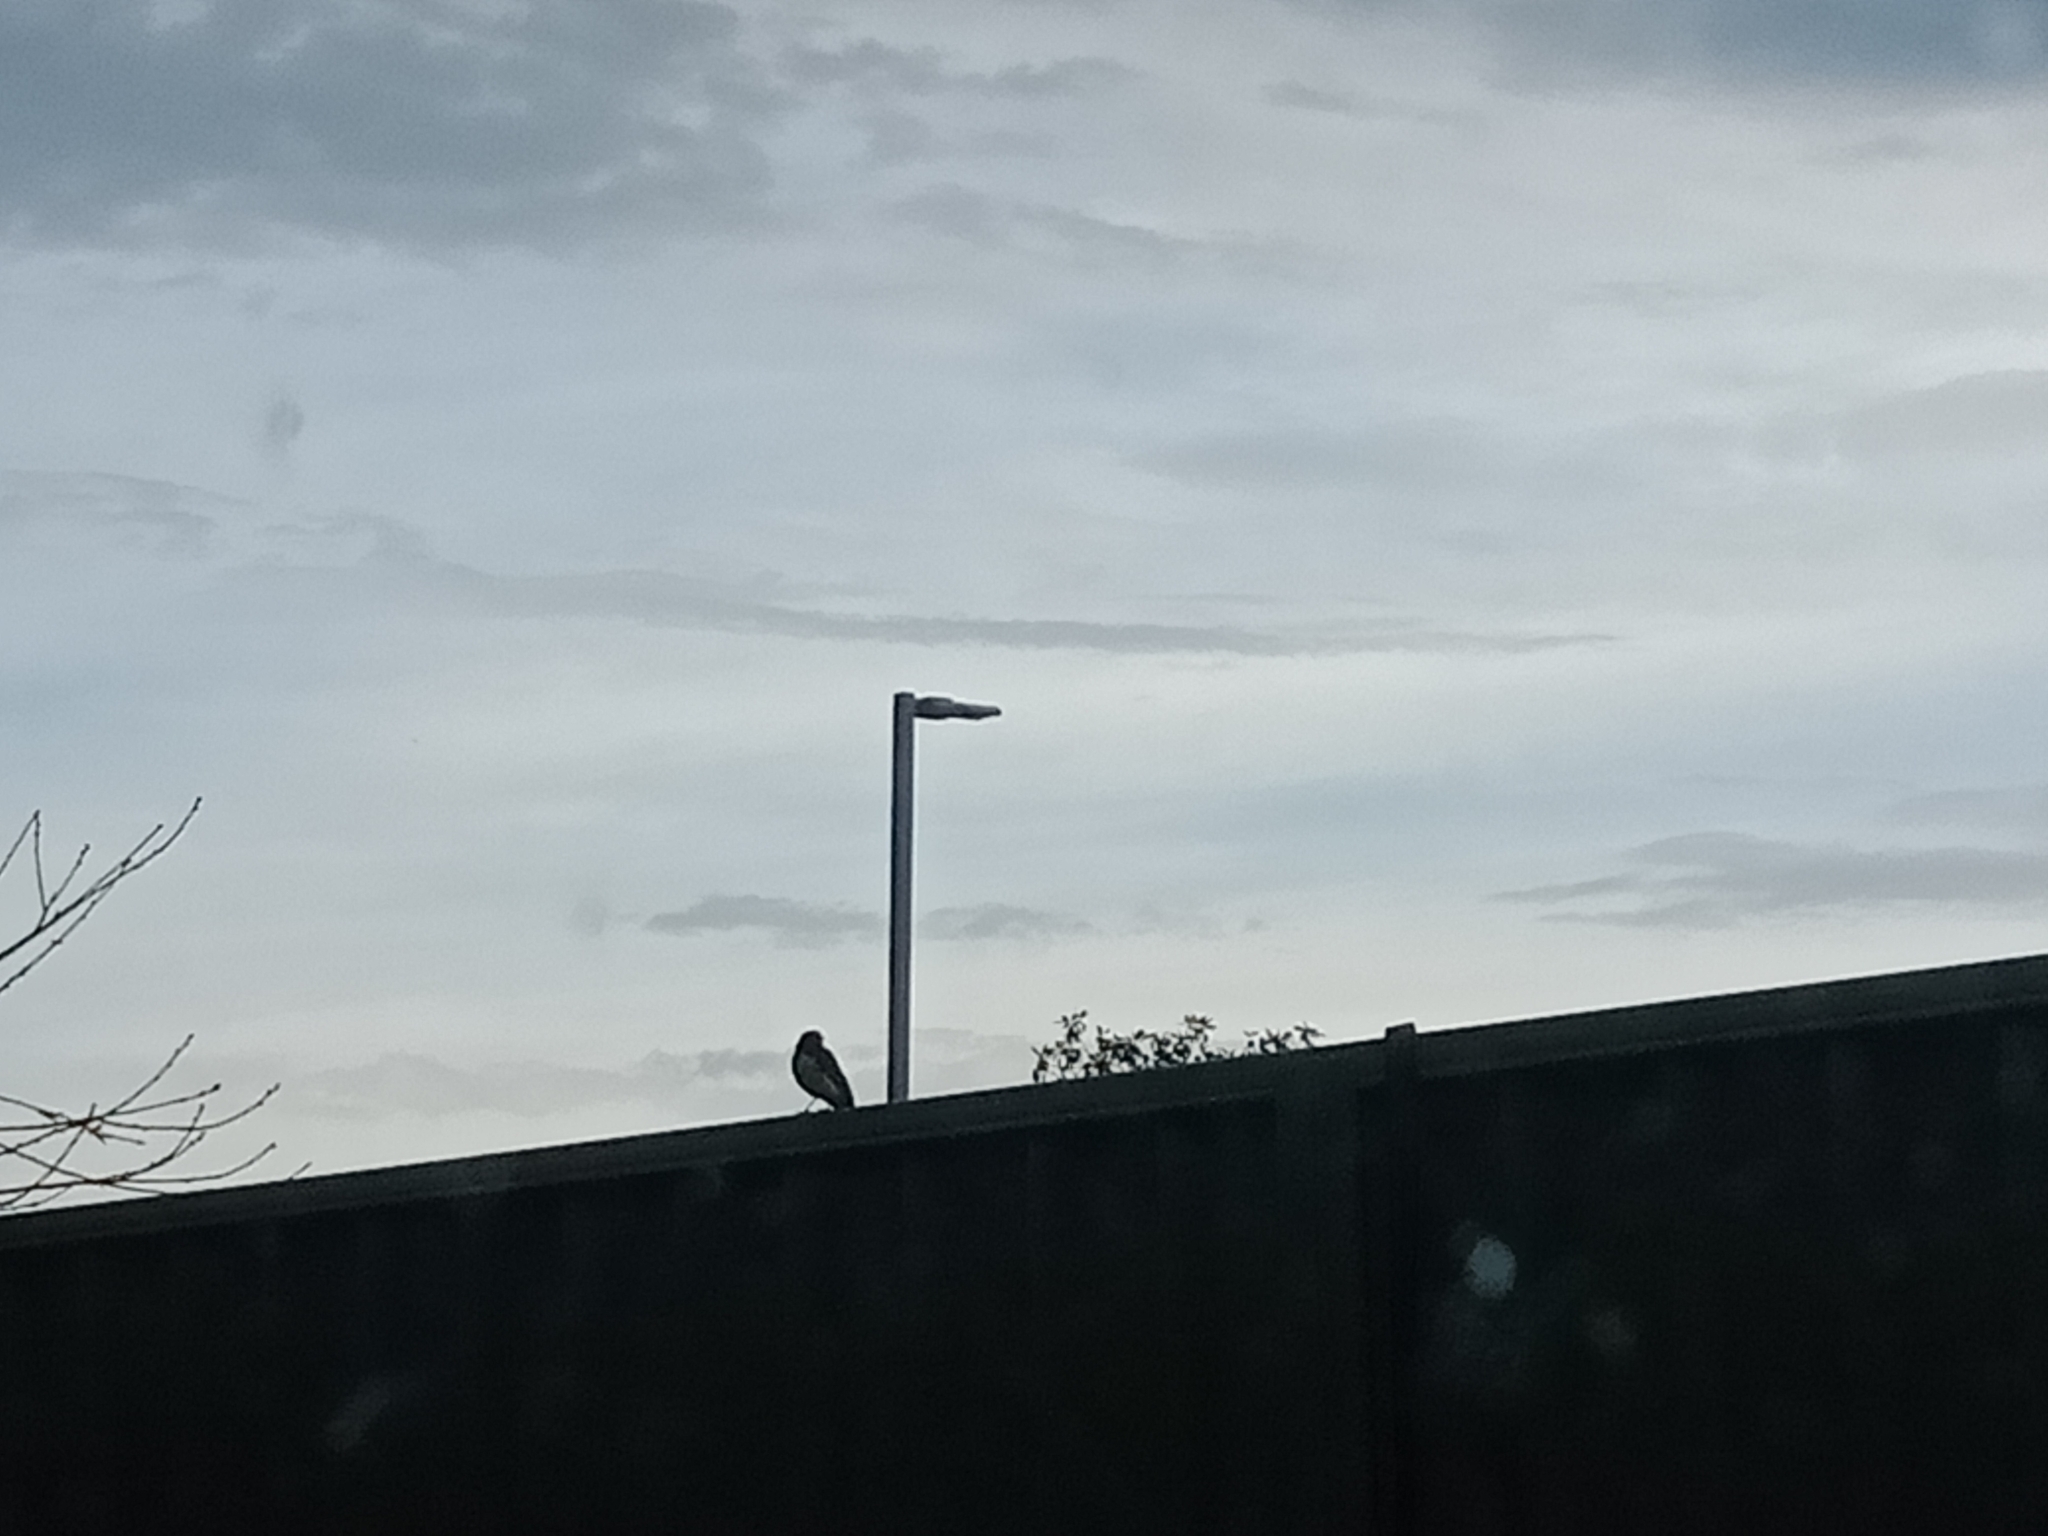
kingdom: Animalia
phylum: Chordata
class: Aves
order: Passeriformes
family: Rhipiduridae
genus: Rhipidura
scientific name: Rhipidura leucophrys
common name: Willie wagtail
